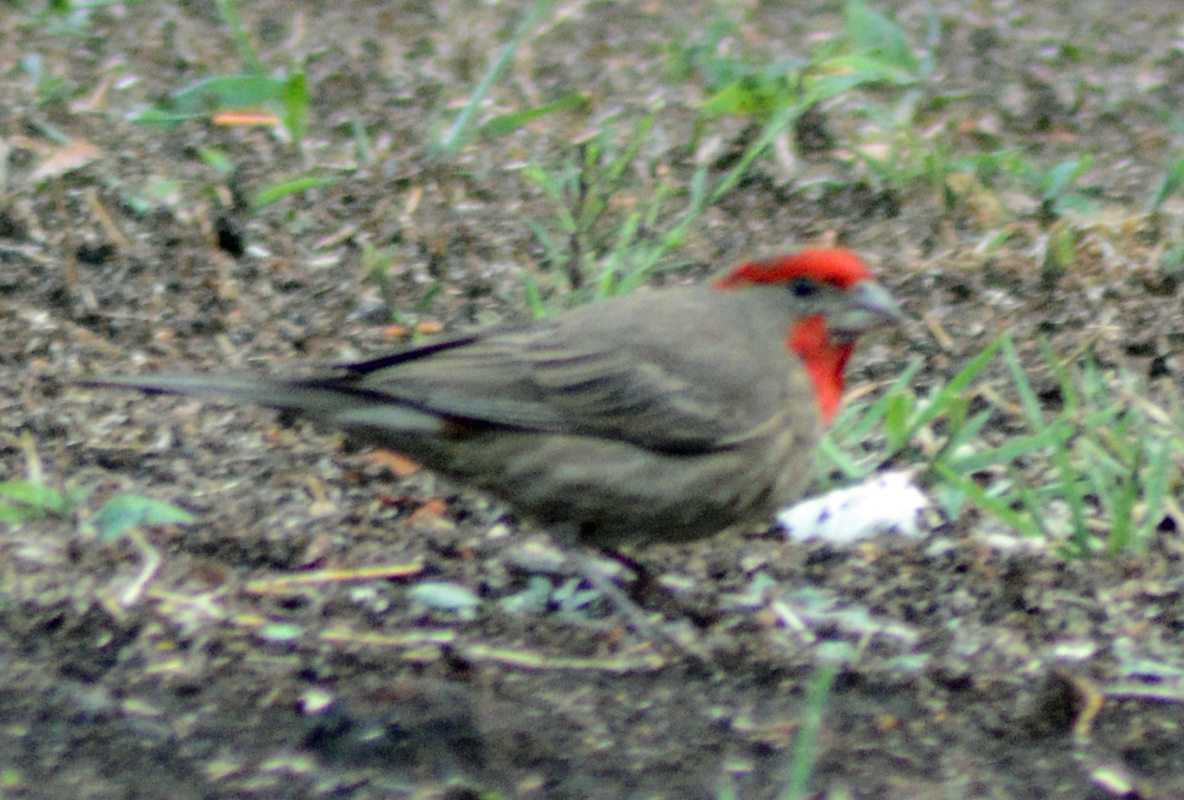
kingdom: Animalia
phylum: Chordata
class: Aves
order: Passeriformes
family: Fringillidae
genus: Haemorhous
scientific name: Haemorhous mexicanus
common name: House finch
